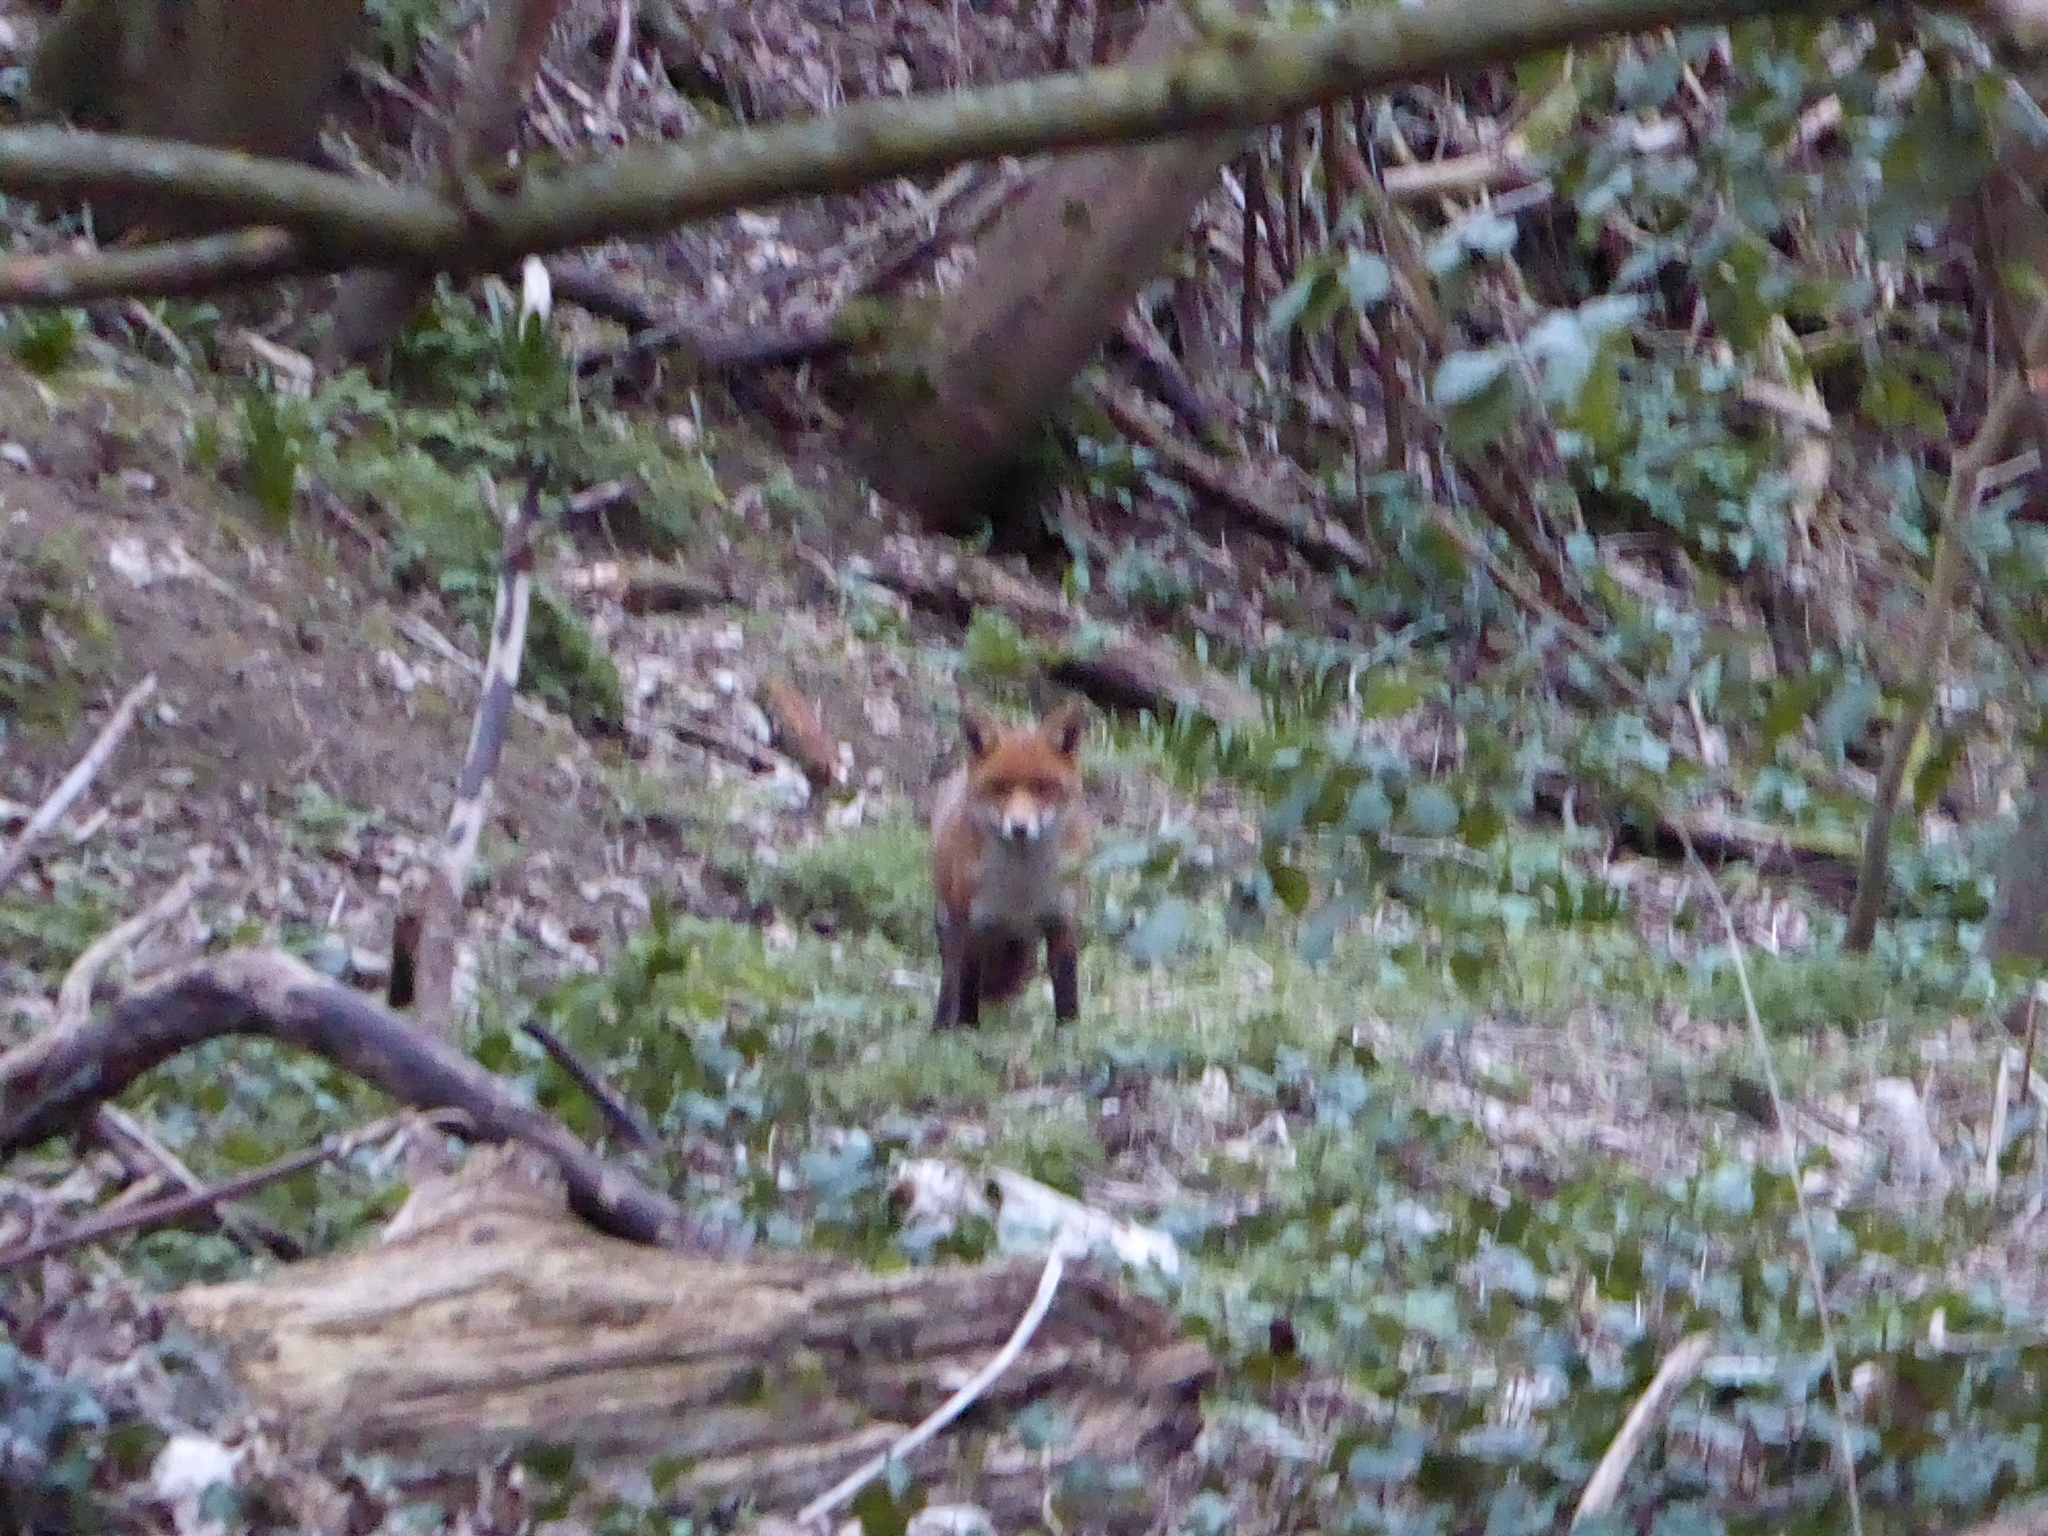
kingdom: Animalia
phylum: Chordata
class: Mammalia
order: Carnivora
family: Canidae
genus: Vulpes
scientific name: Vulpes vulpes
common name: Red fox
